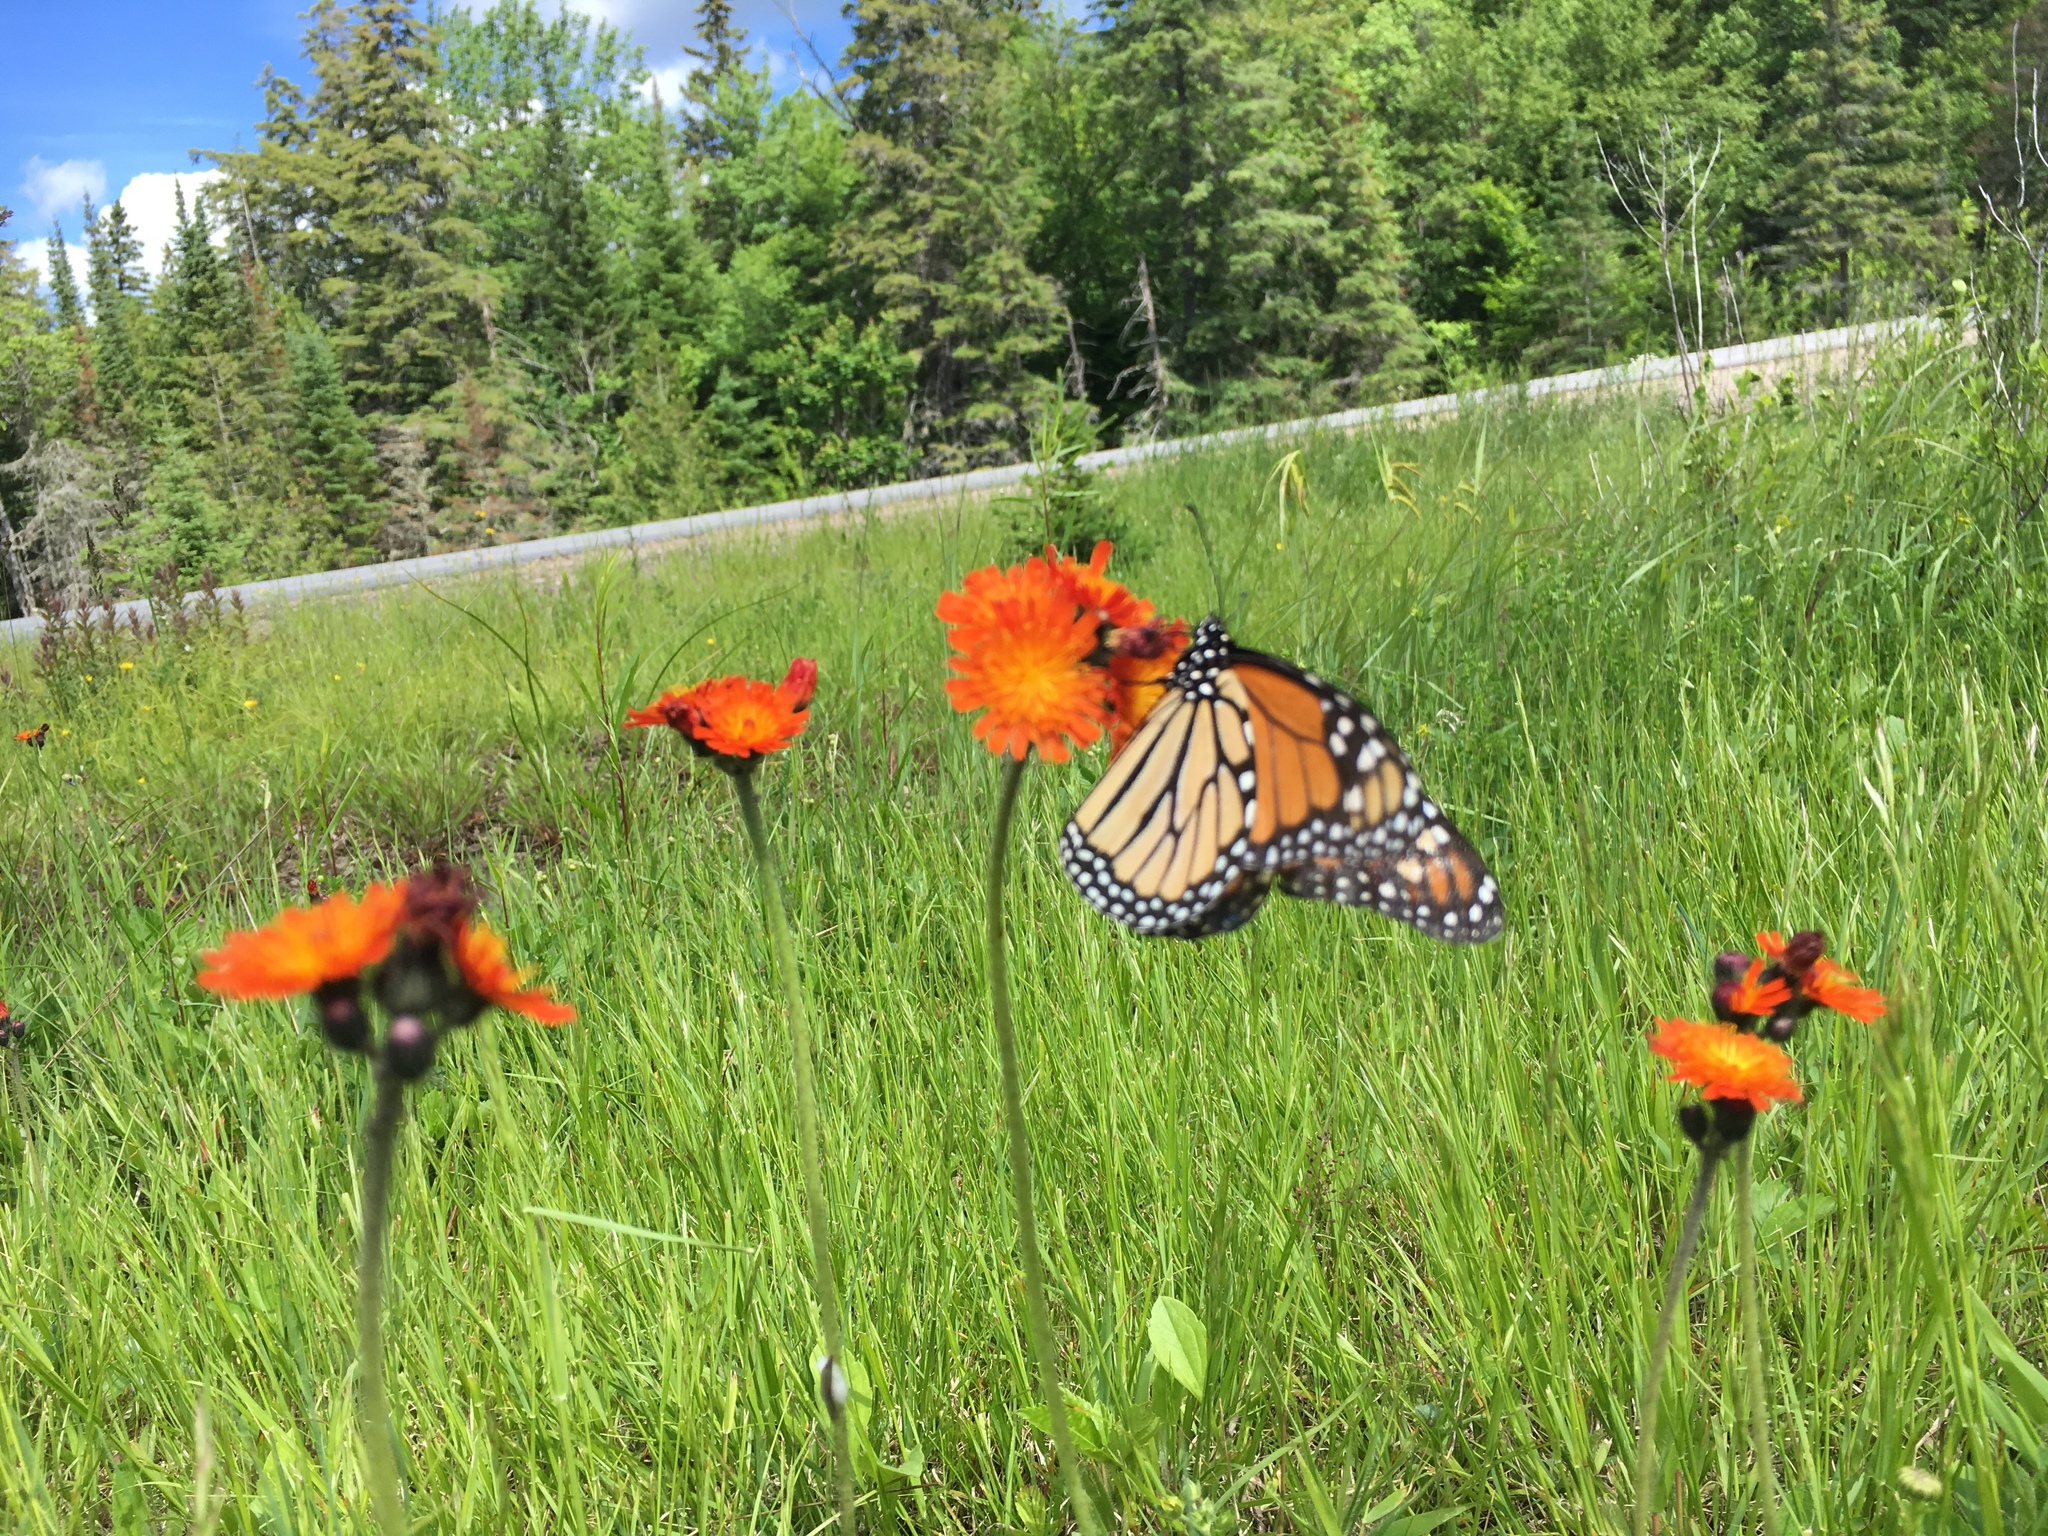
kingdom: Plantae
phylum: Tracheophyta
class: Magnoliopsida
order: Asterales
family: Asteraceae
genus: Pilosella
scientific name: Pilosella aurantiaca
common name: Fox-and-cubs
